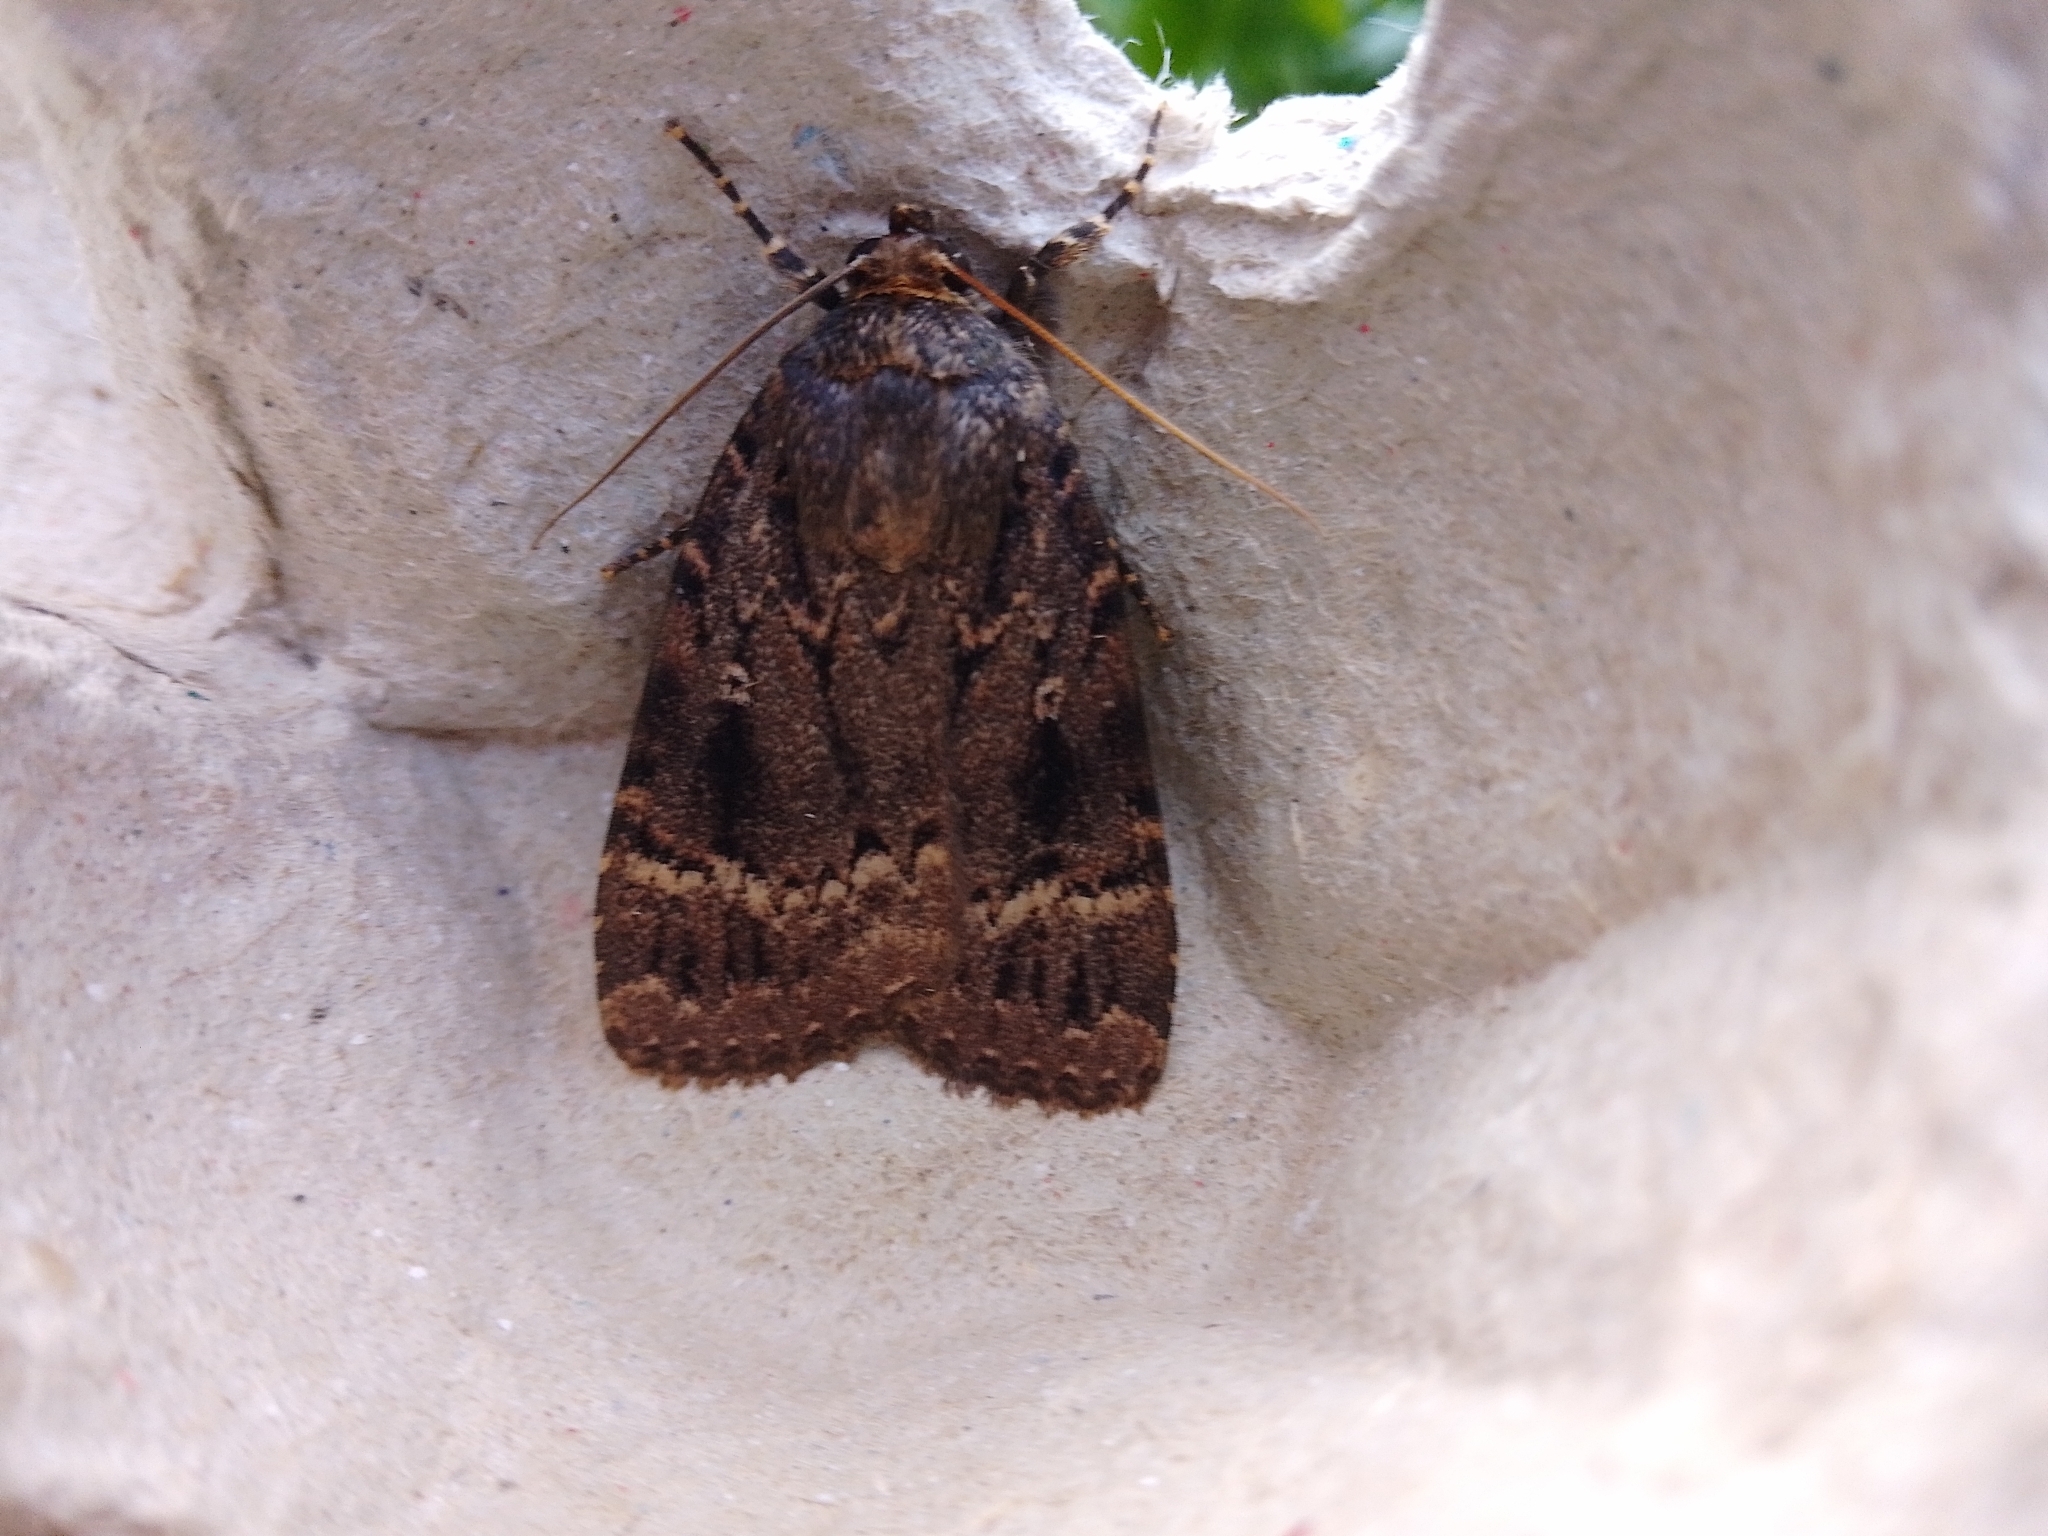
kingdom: Animalia
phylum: Arthropoda
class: Insecta
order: Lepidoptera
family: Noctuidae
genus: Amphipyra
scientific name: Amphipyra pyramidea
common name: Copper underwing
